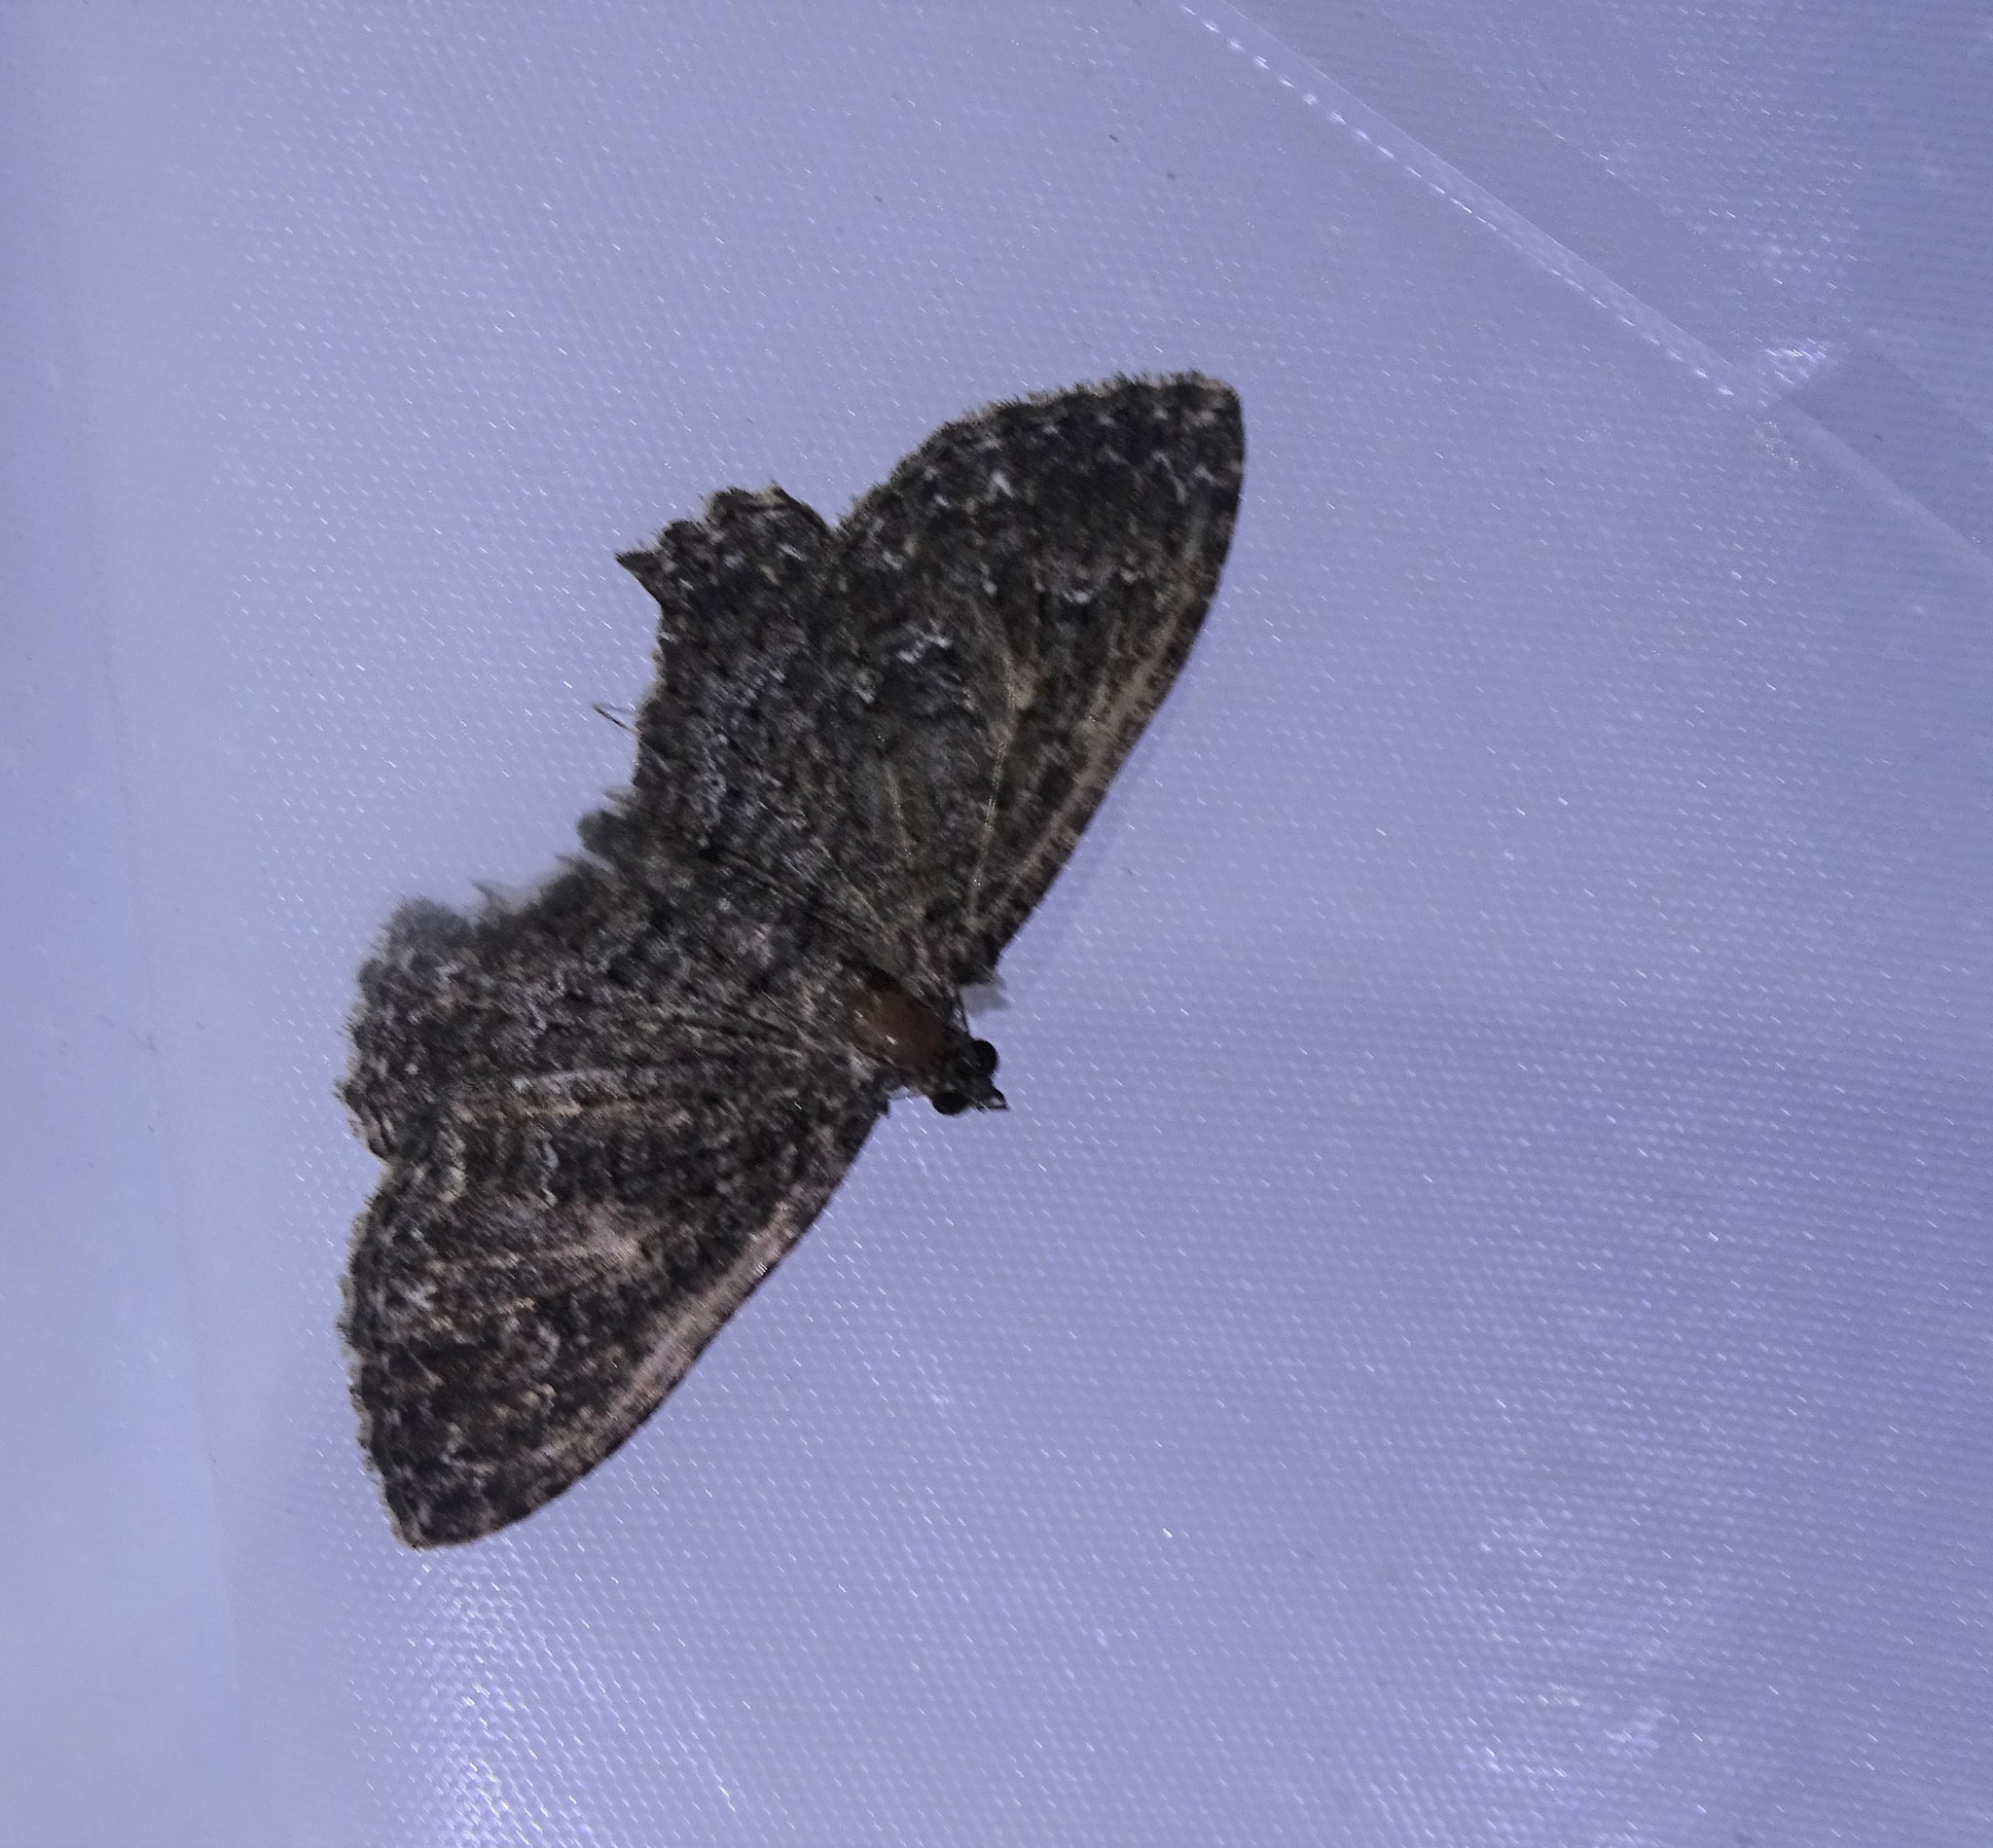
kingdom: Animalia
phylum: Arthropoda
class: Insecta
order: Lepidoptera
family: Geometridae
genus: Disclisioprocta
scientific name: Disclisioprocta stellata
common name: Somber carpet
